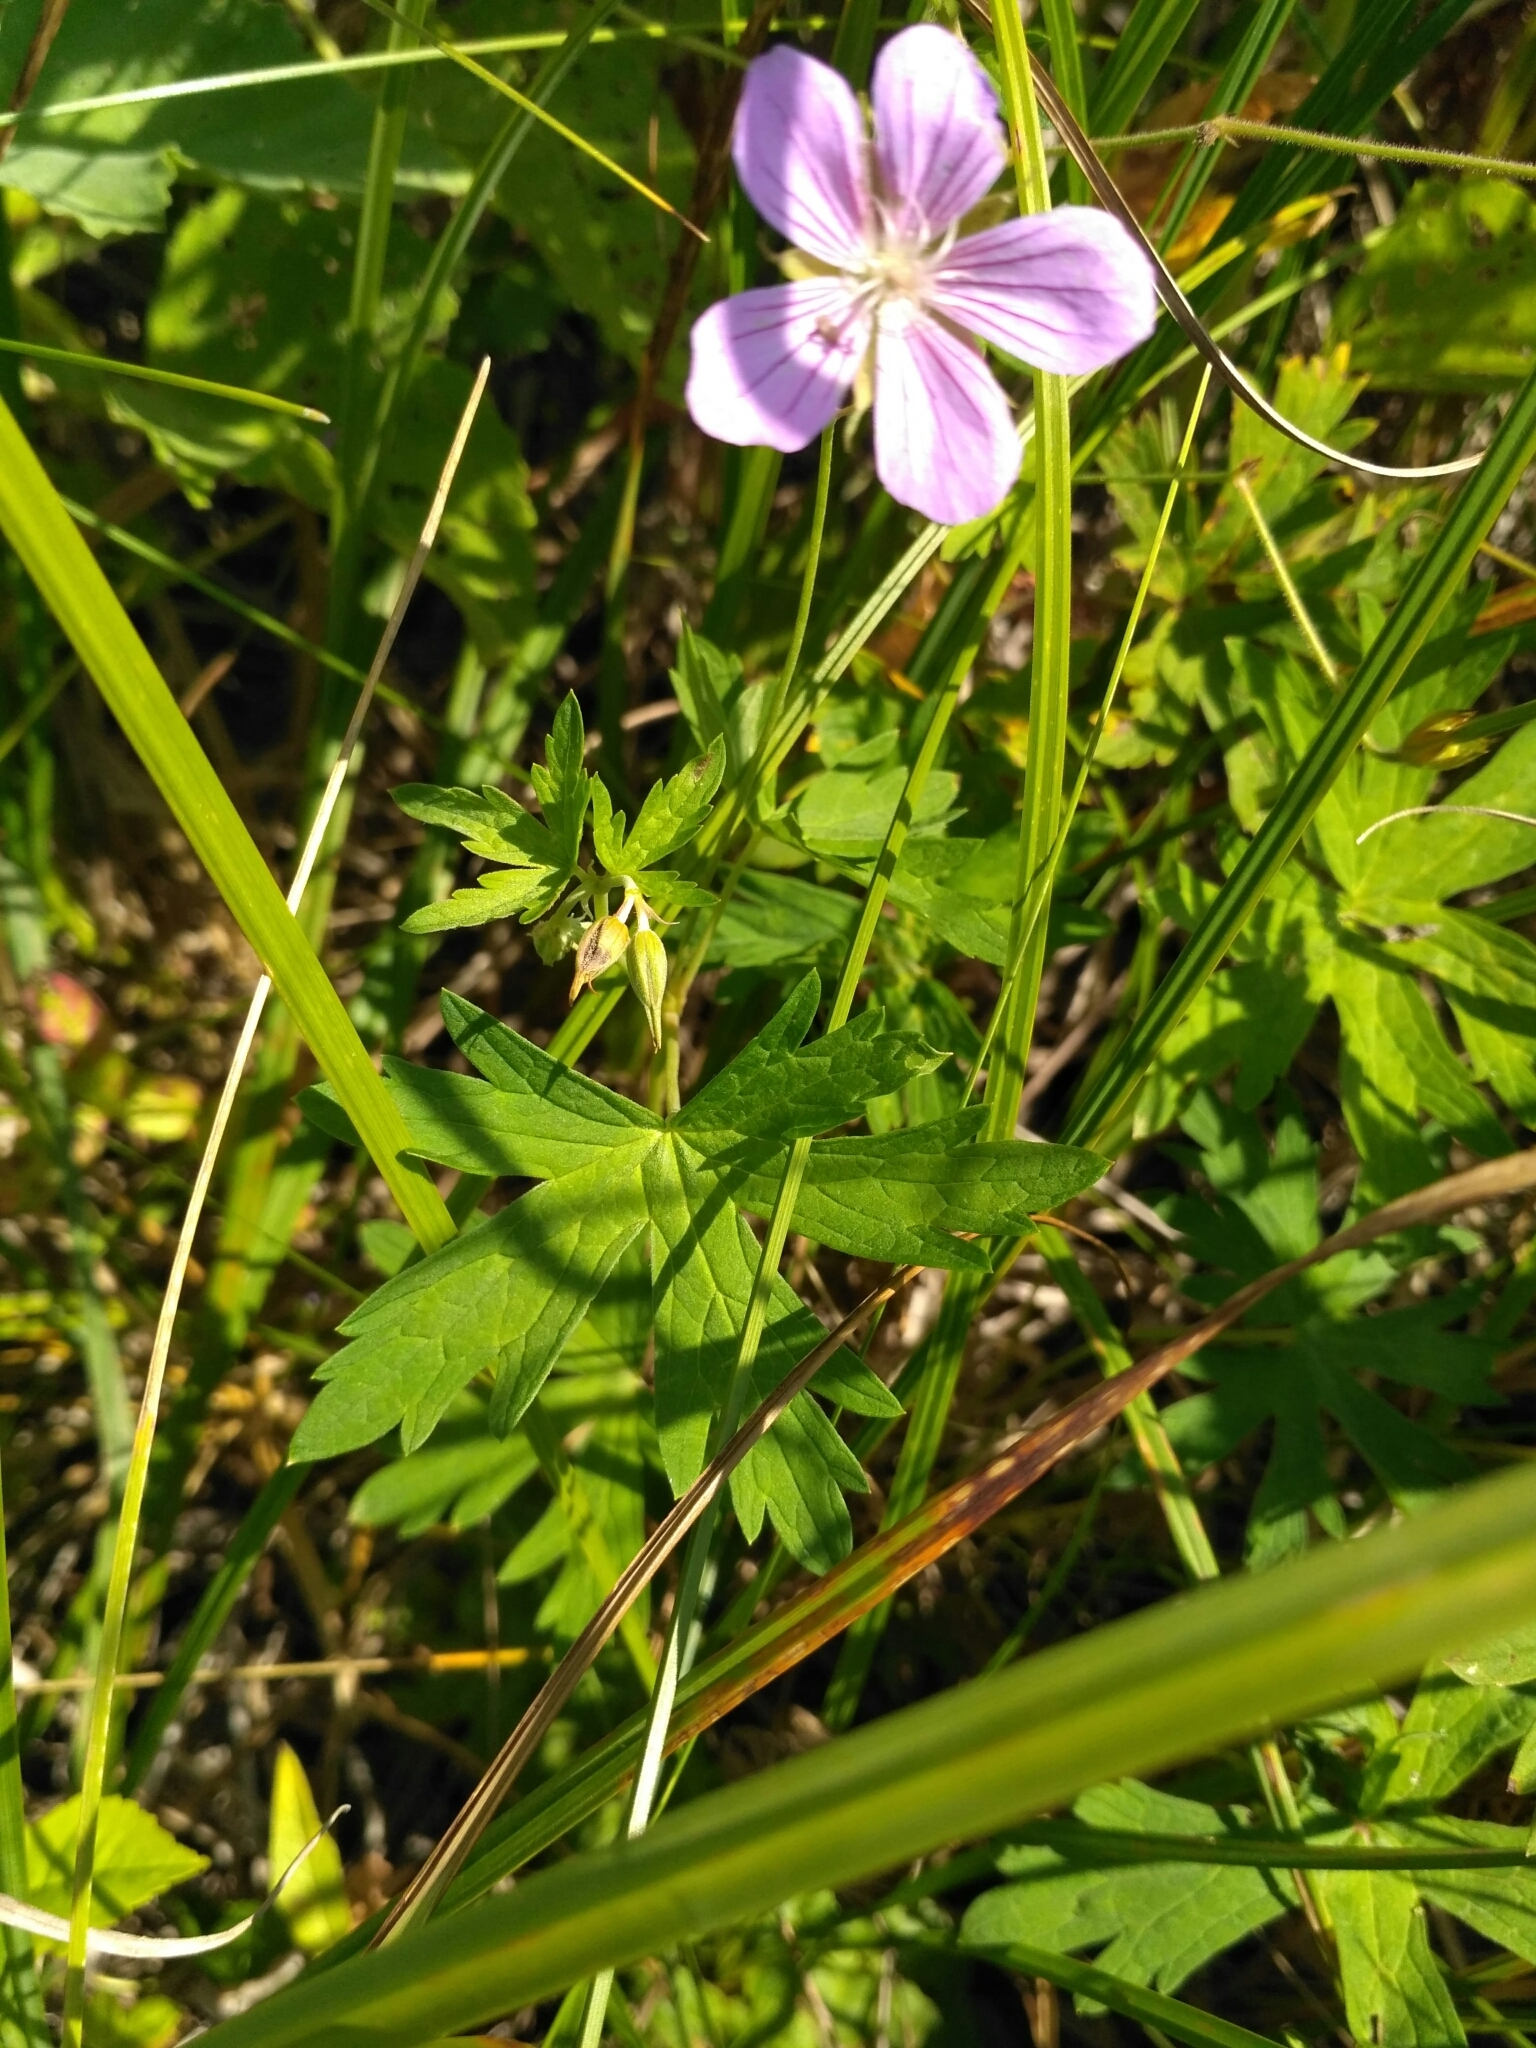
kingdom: Plantae
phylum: Tracheophyta
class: Magnoliopsida
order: Geraniales
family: Geraniaceae
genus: Geranium
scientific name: Geranium collinum
